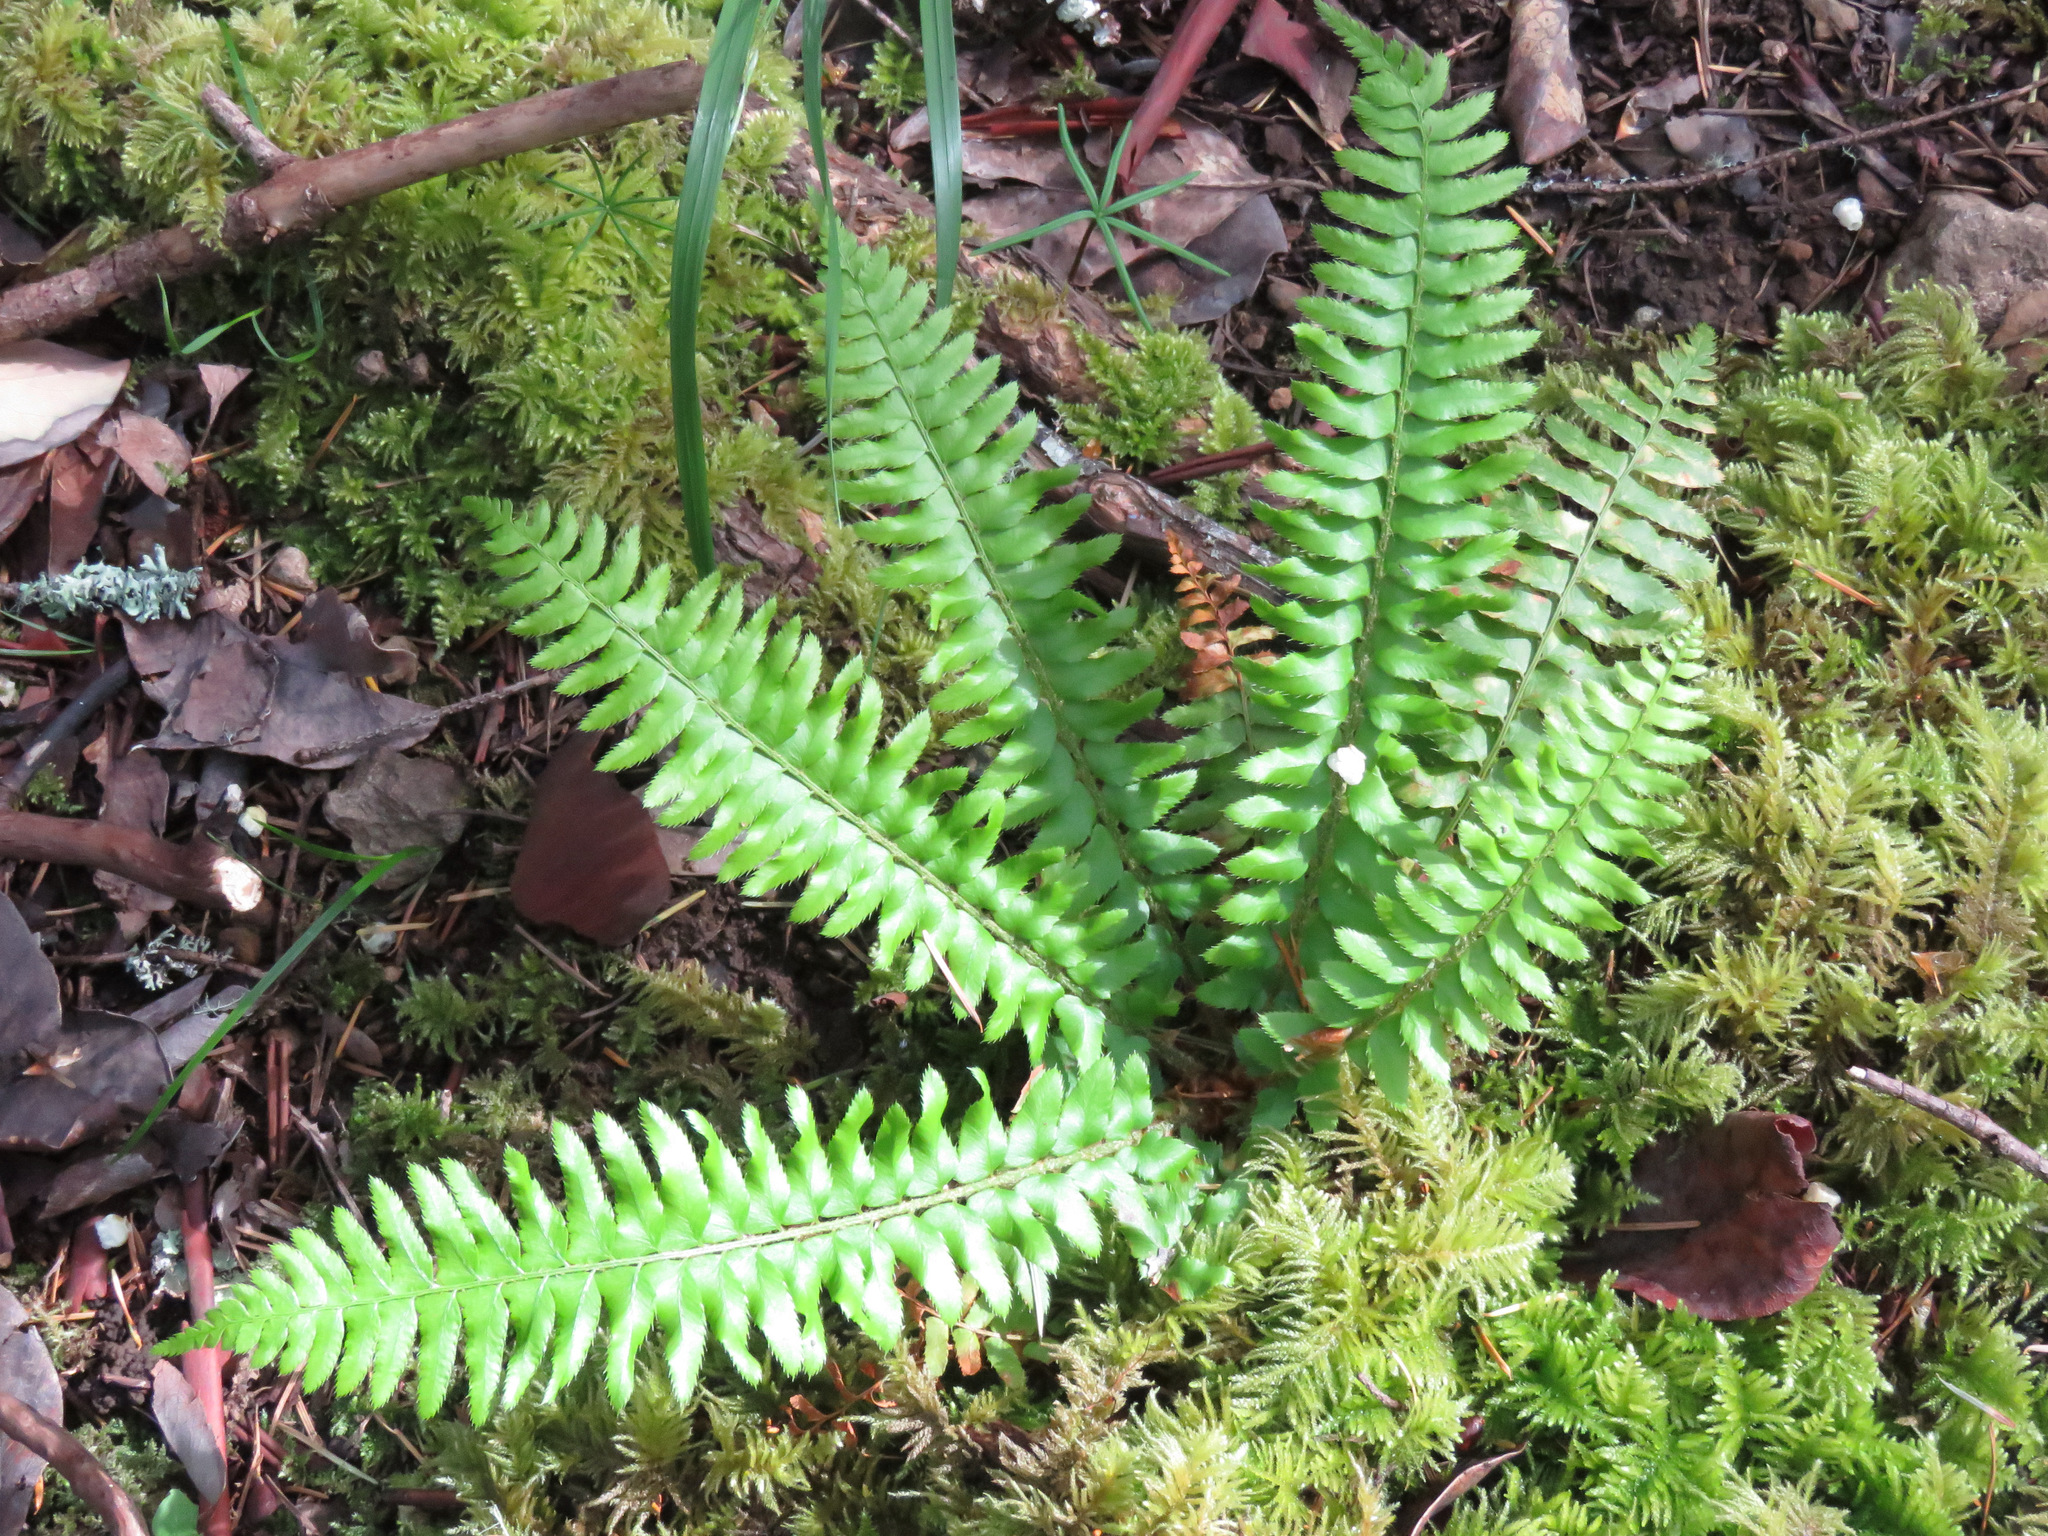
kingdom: Plantae
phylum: Tracheophyta
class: Polypodiopsida
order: Polypodiales
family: Dryopteridaceae
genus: Polystichum
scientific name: Polystichum munitum
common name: Western sword-fern
